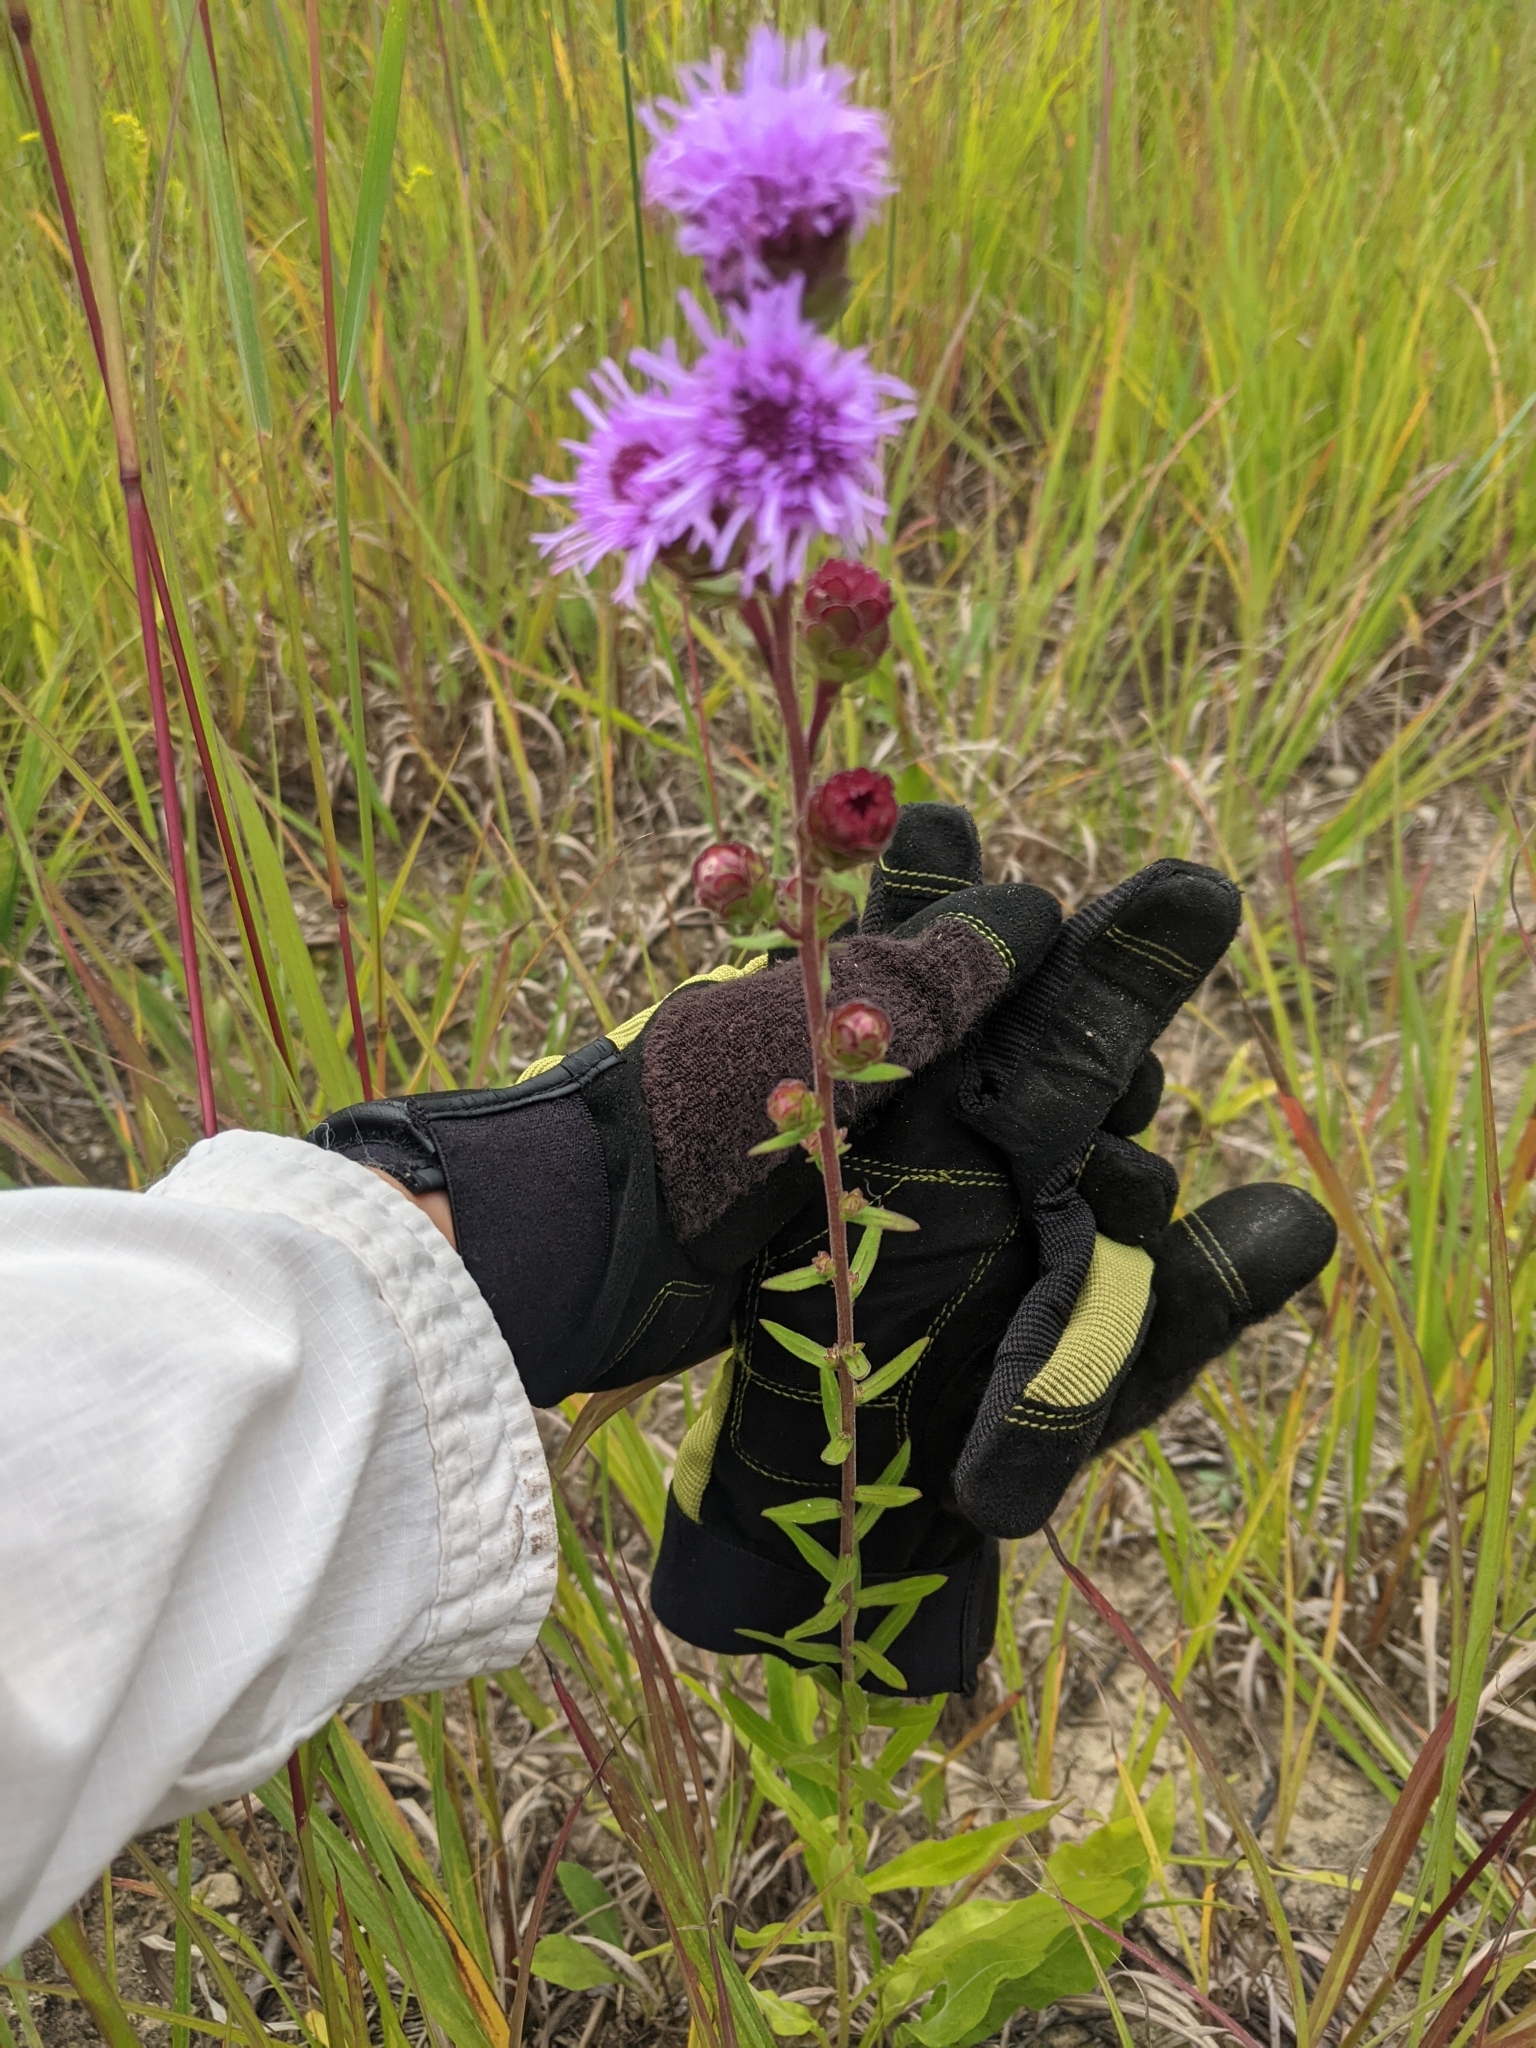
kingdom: Plantae
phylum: Tracheophyta
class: Magnoliopsida
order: Asterales
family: Asteraceae
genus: Liatris
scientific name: Liatris scariosa
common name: Northern gayfeather
